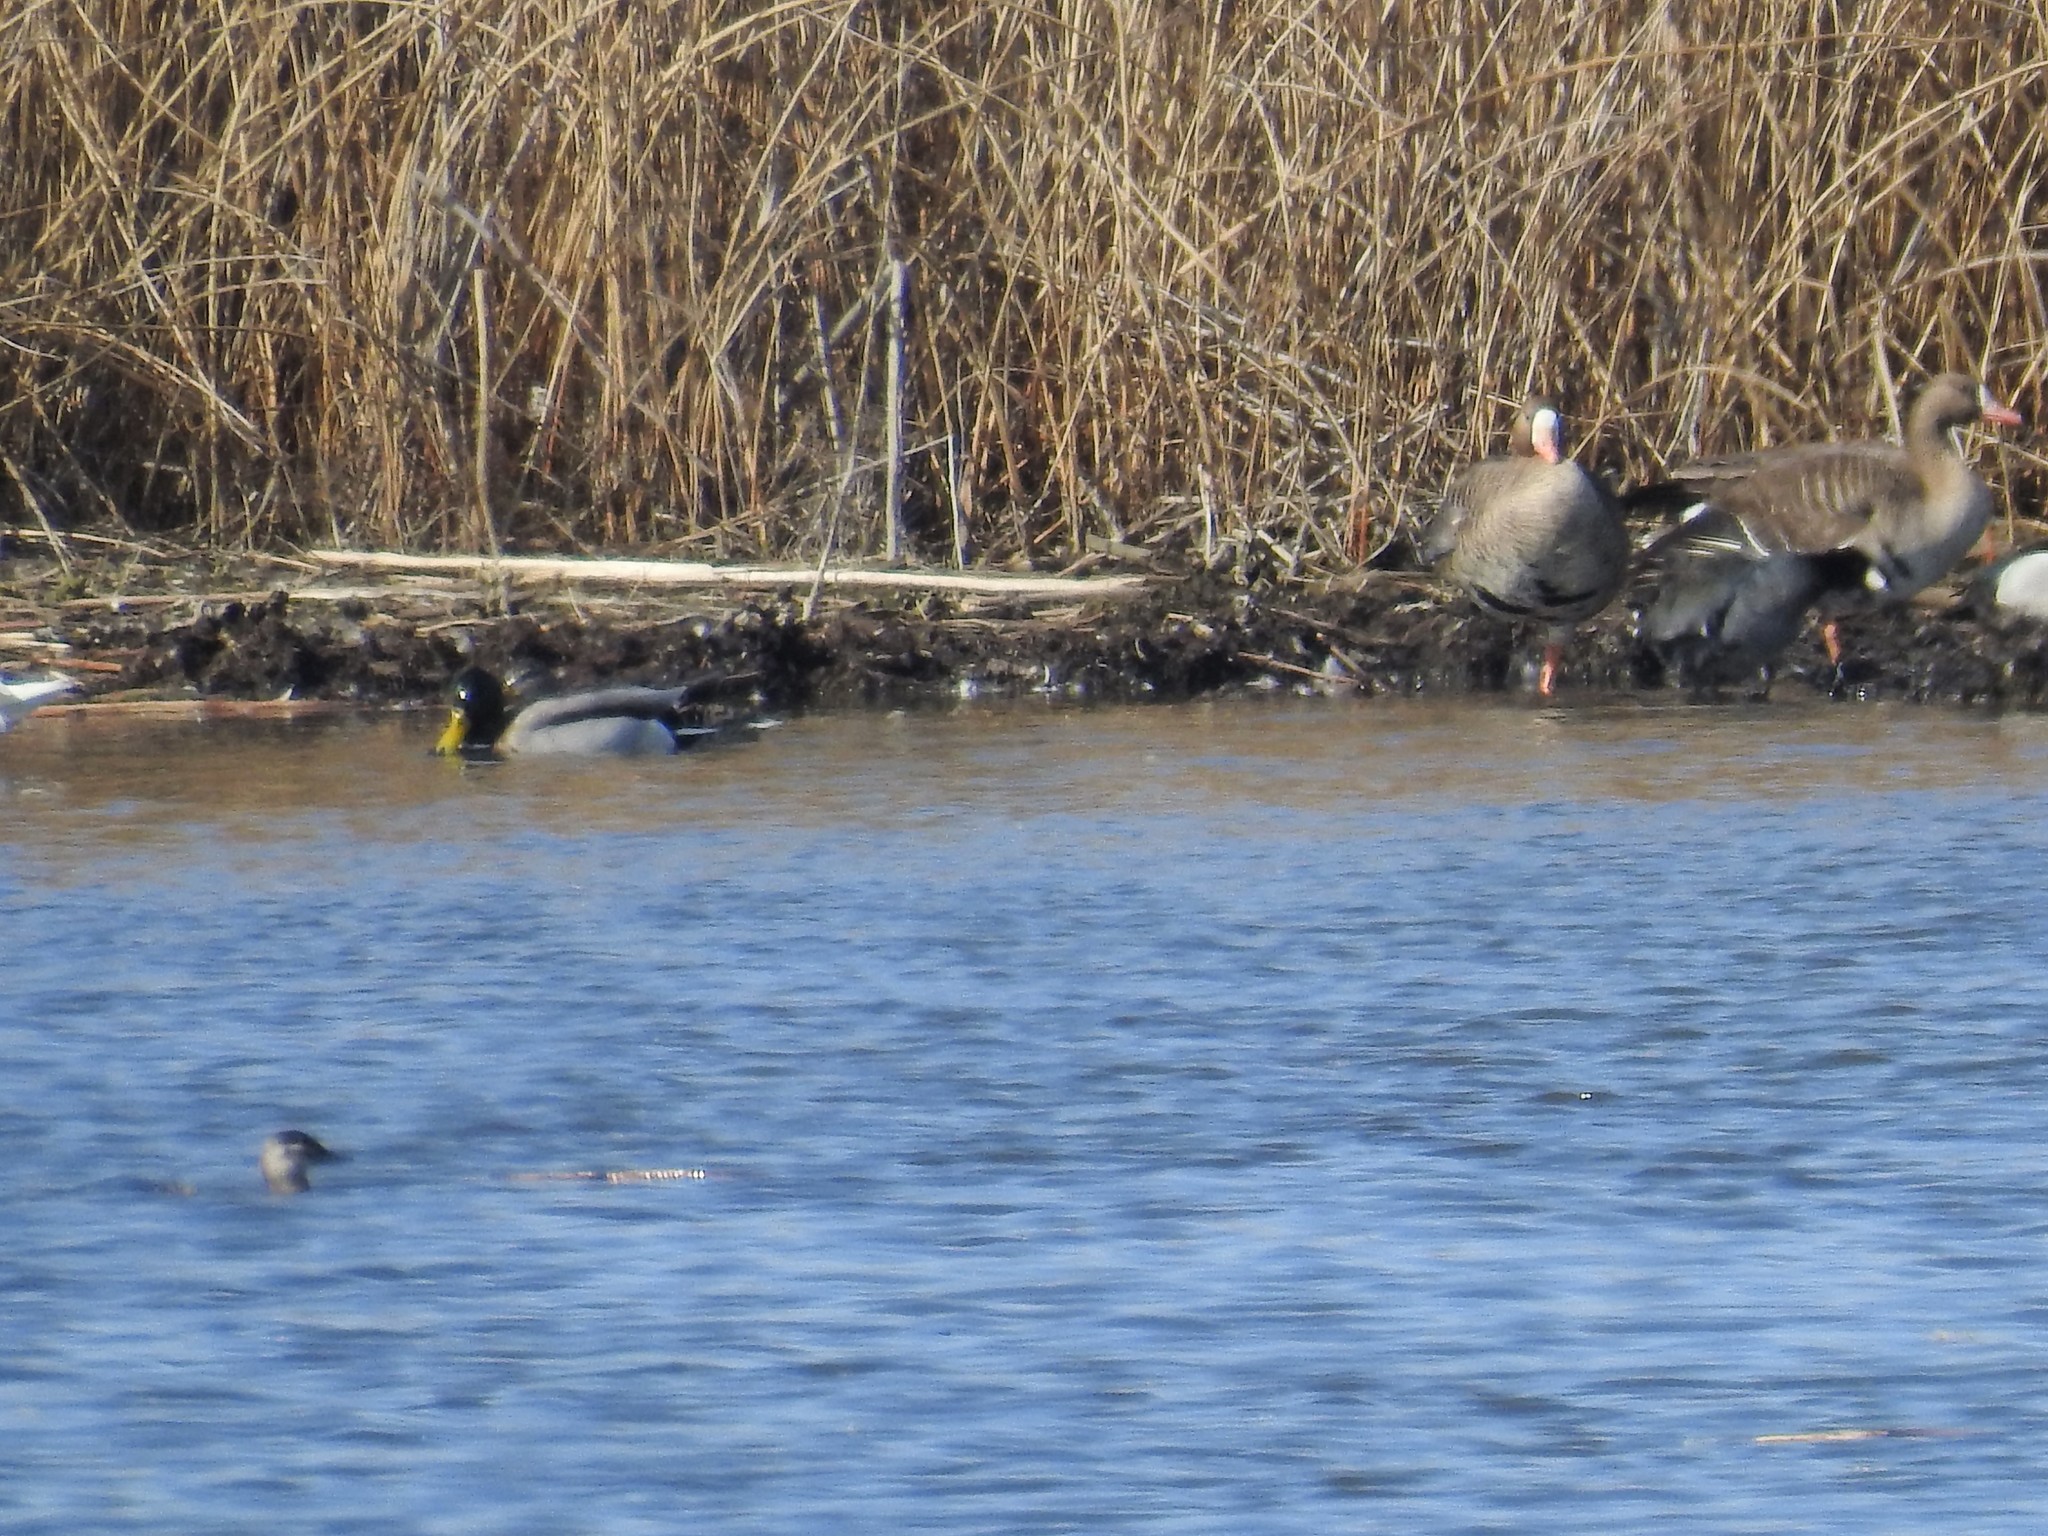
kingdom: Animalia
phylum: Chordata
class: Aves
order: Anseriformes
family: Anatidae
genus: Anser
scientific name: Anser albifrons
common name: Greater white-fronted goose
